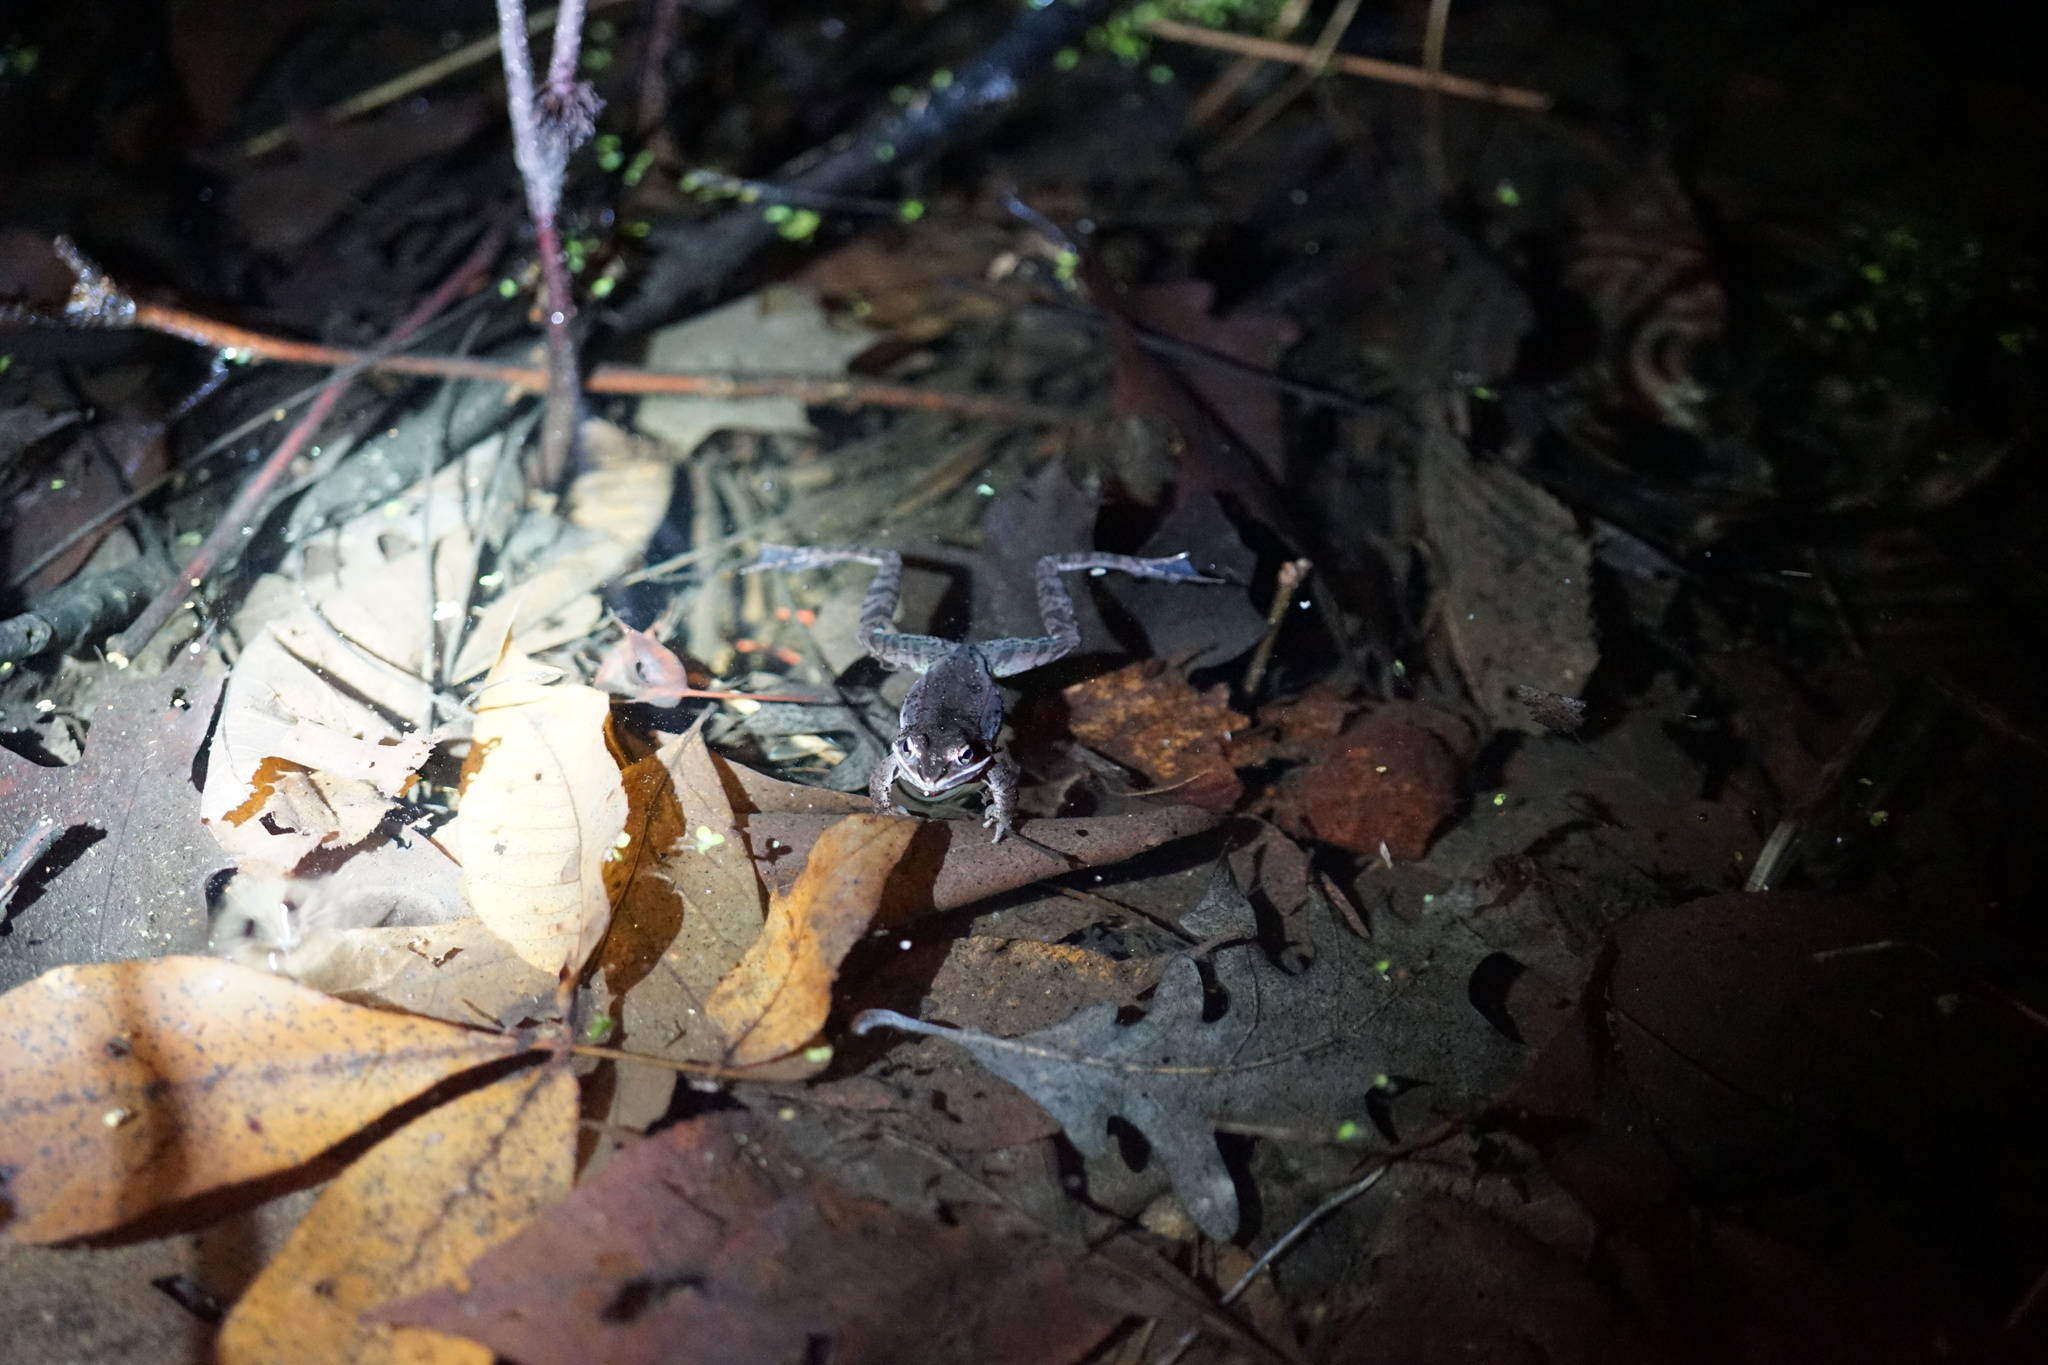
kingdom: Animalia
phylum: Chordata
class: Amphibia
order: Anura
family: Ranidae
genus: Lithobates
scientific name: Lithobates sylvaticus
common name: Wood frog
